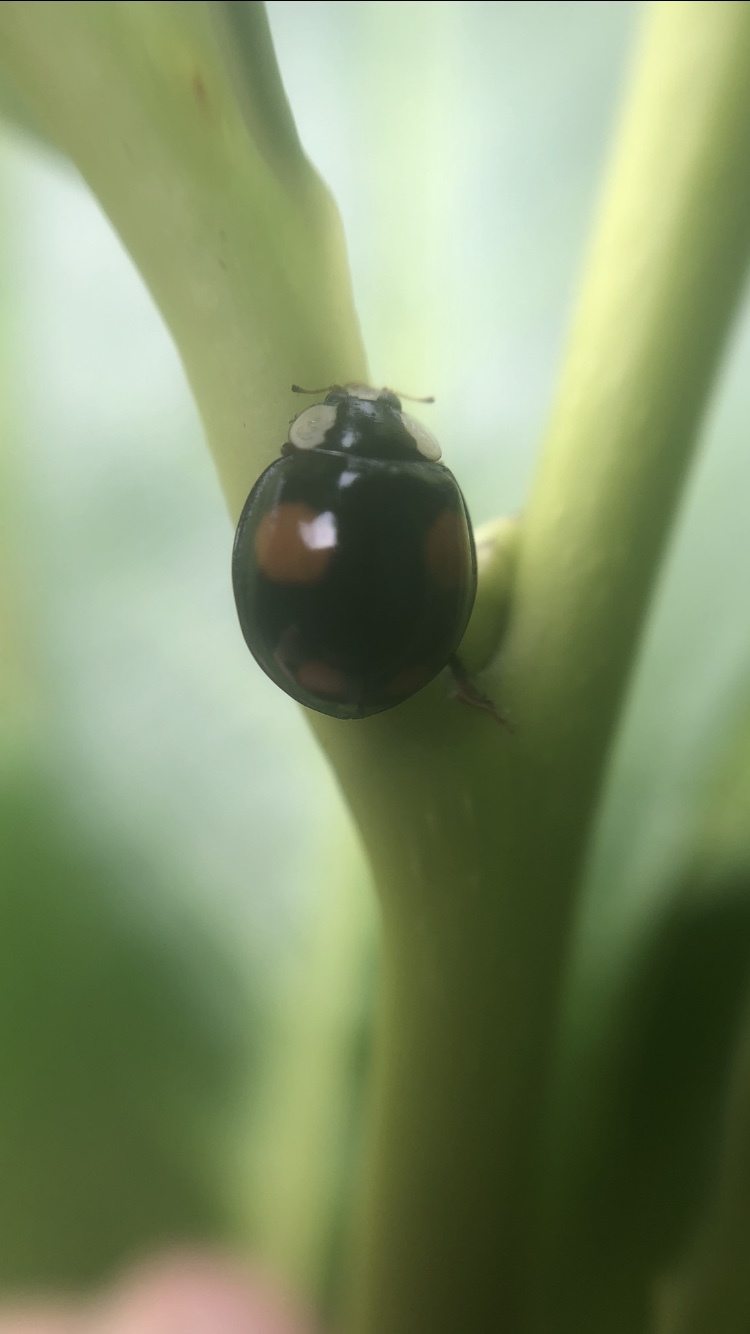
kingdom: Animalia
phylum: Arthropoda
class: Insecta
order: Coleoptera
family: Coccinellidae
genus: Harmonia
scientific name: Harmonia axyridis
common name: Harlequin ladybird
